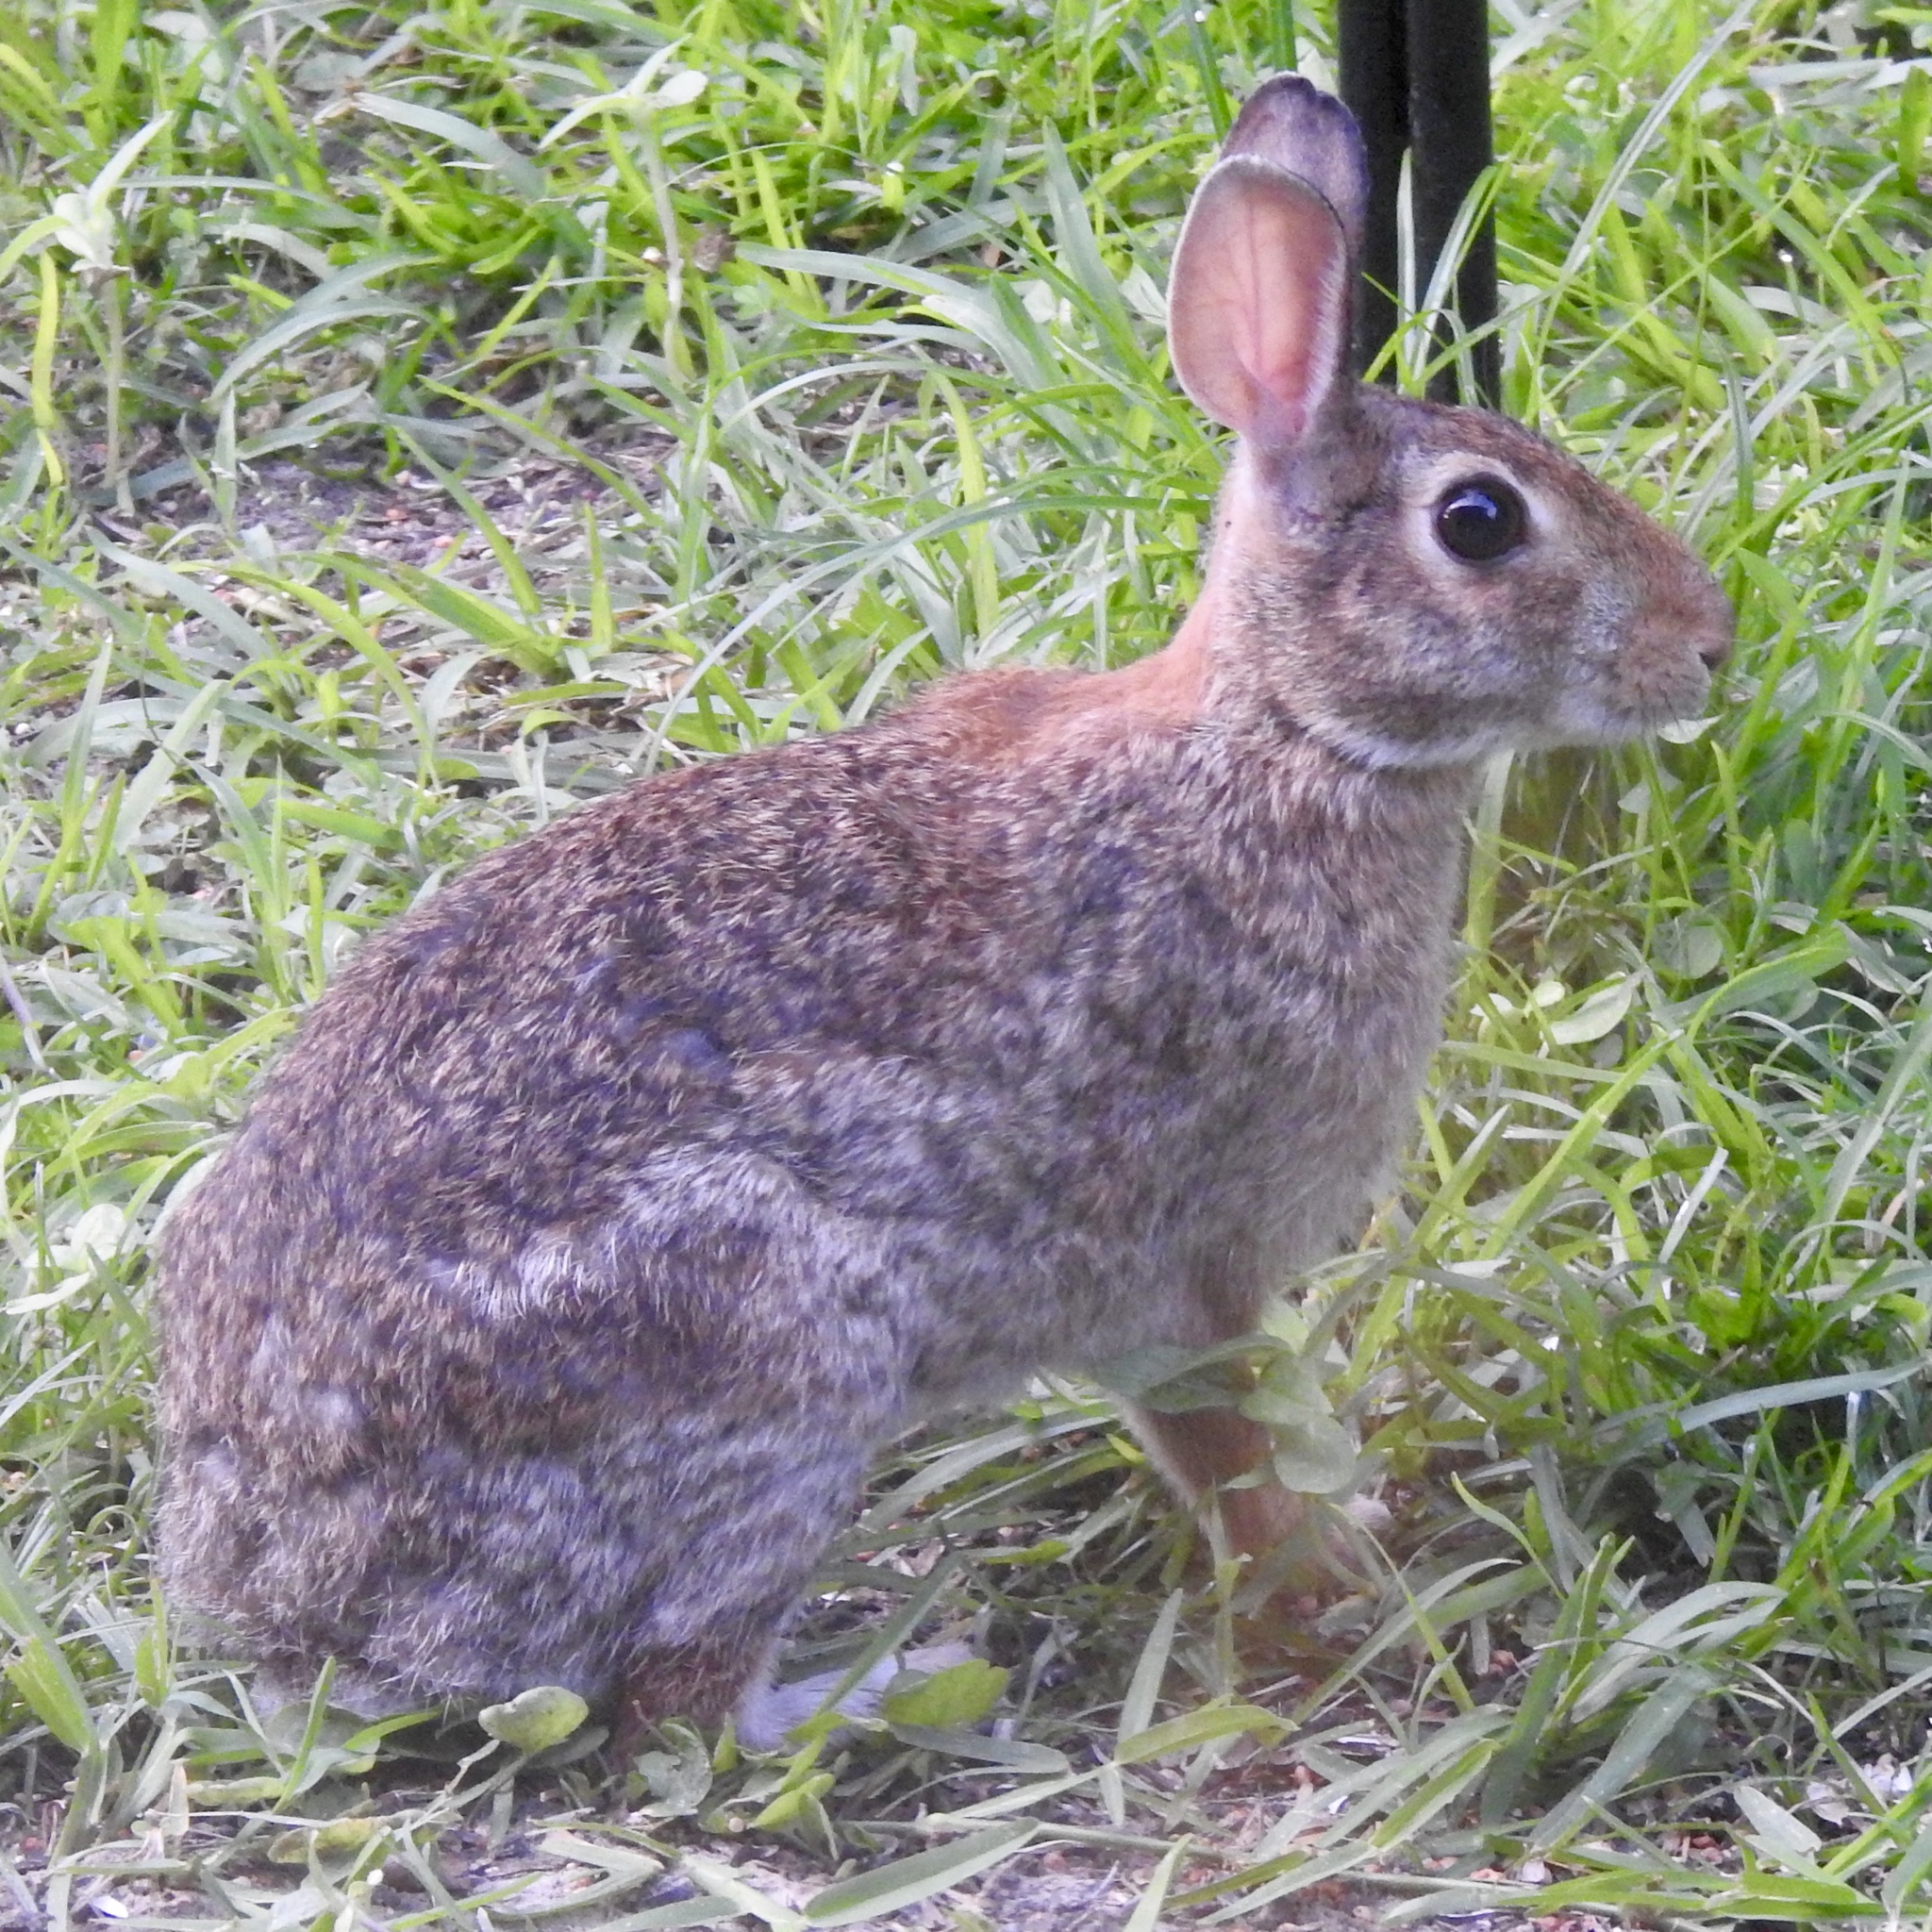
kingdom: Animalia
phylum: Chordata
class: Mammalia
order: Lagomorpha
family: Leporidae
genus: Sylvilagus
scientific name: Sylvilagus floridanus
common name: Eastern cottontail
